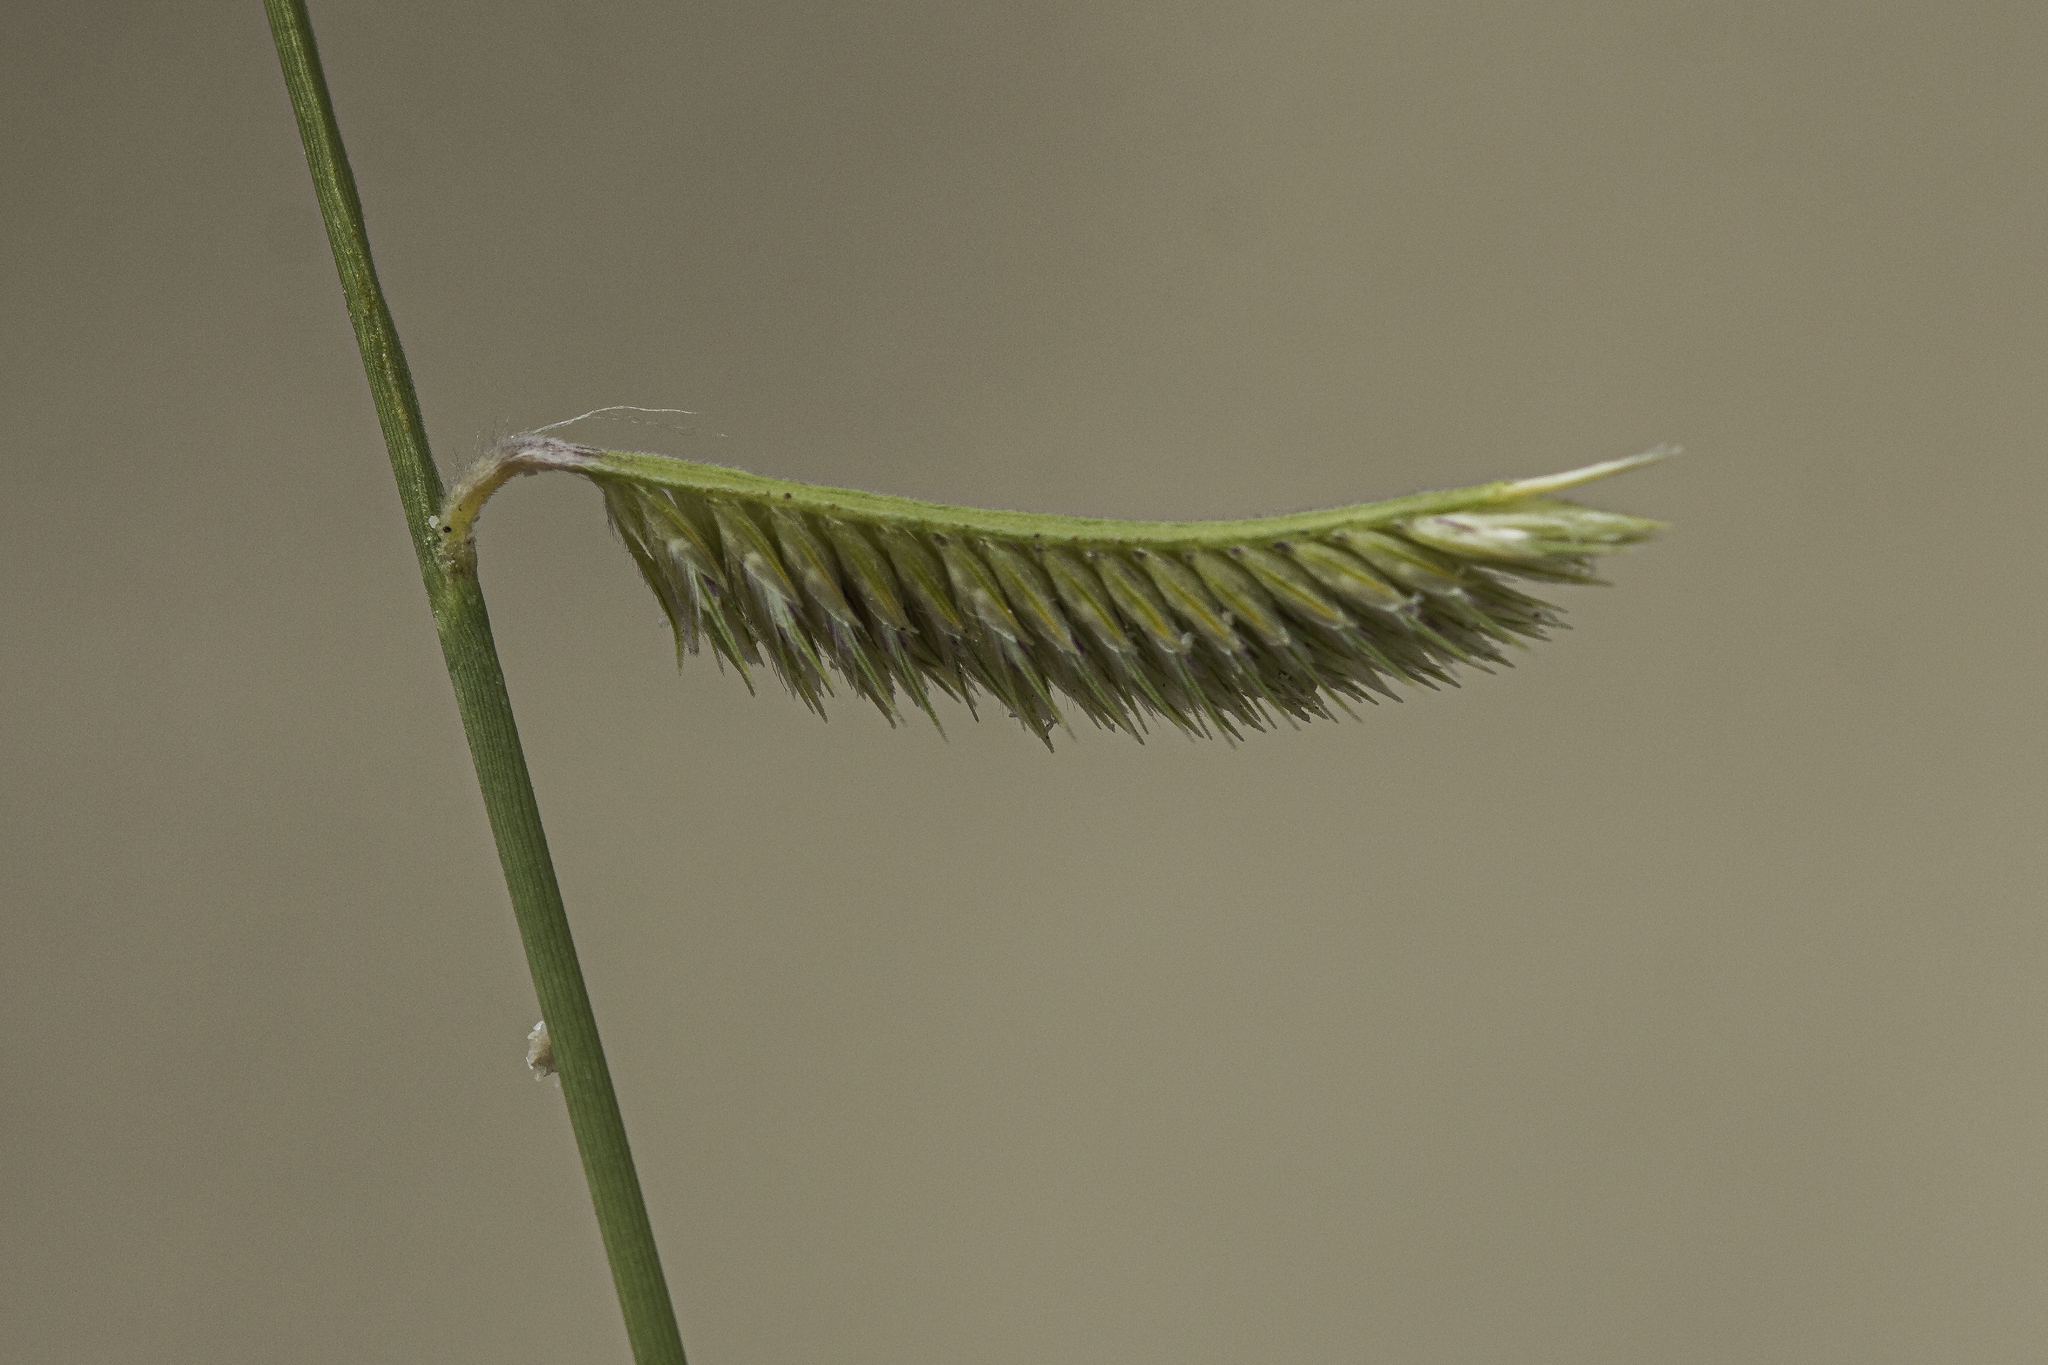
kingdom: Plantae
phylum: Tracheophyta
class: Liliopsida
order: Poales
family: Poaceae
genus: Bouteloua
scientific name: Bouteloua breviseta
